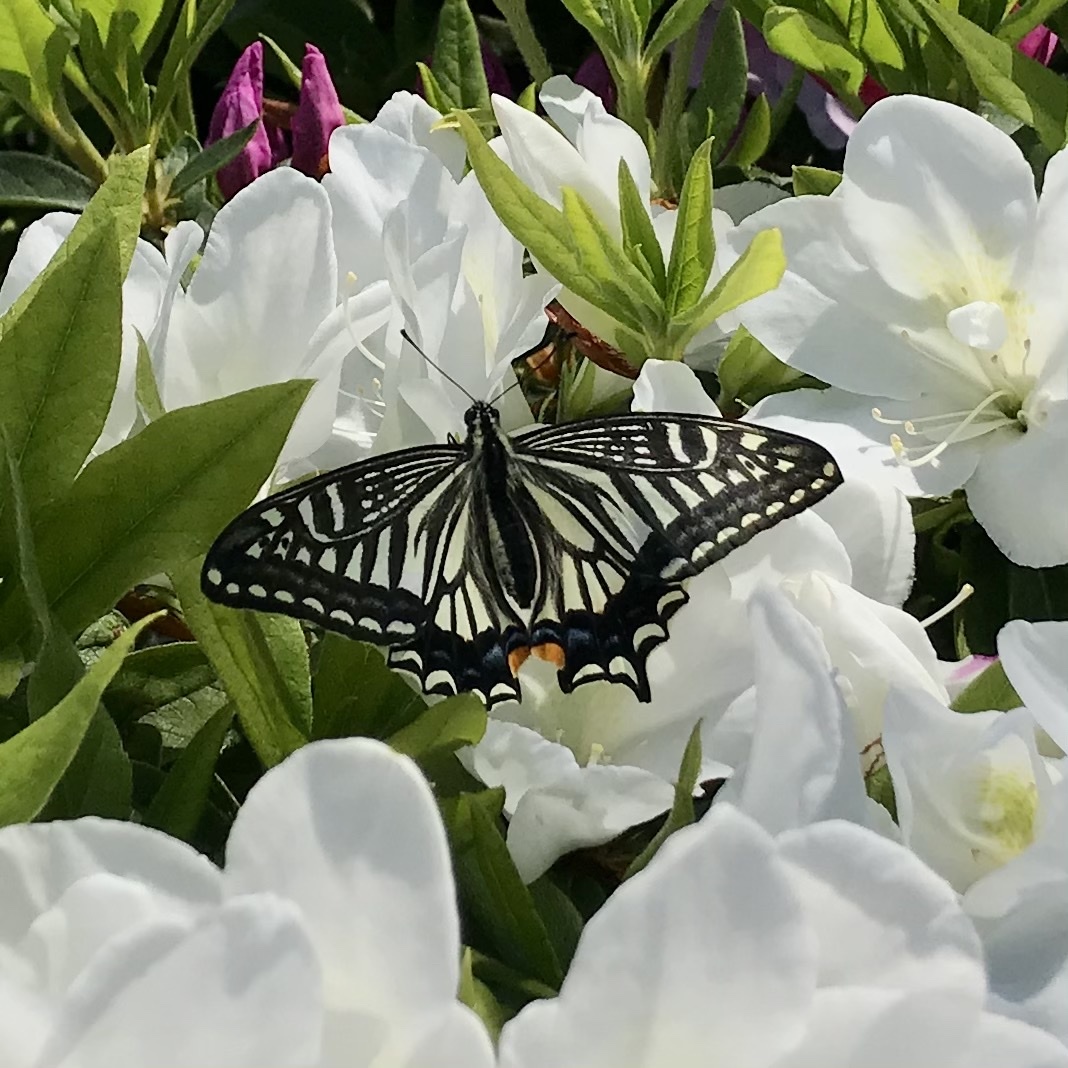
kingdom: Animalia
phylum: Arthropoda
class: Insecta
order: Lepidoptera
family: Papilionidae
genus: Papilio
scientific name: Papilio xuthus
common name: Asian swallowtail
